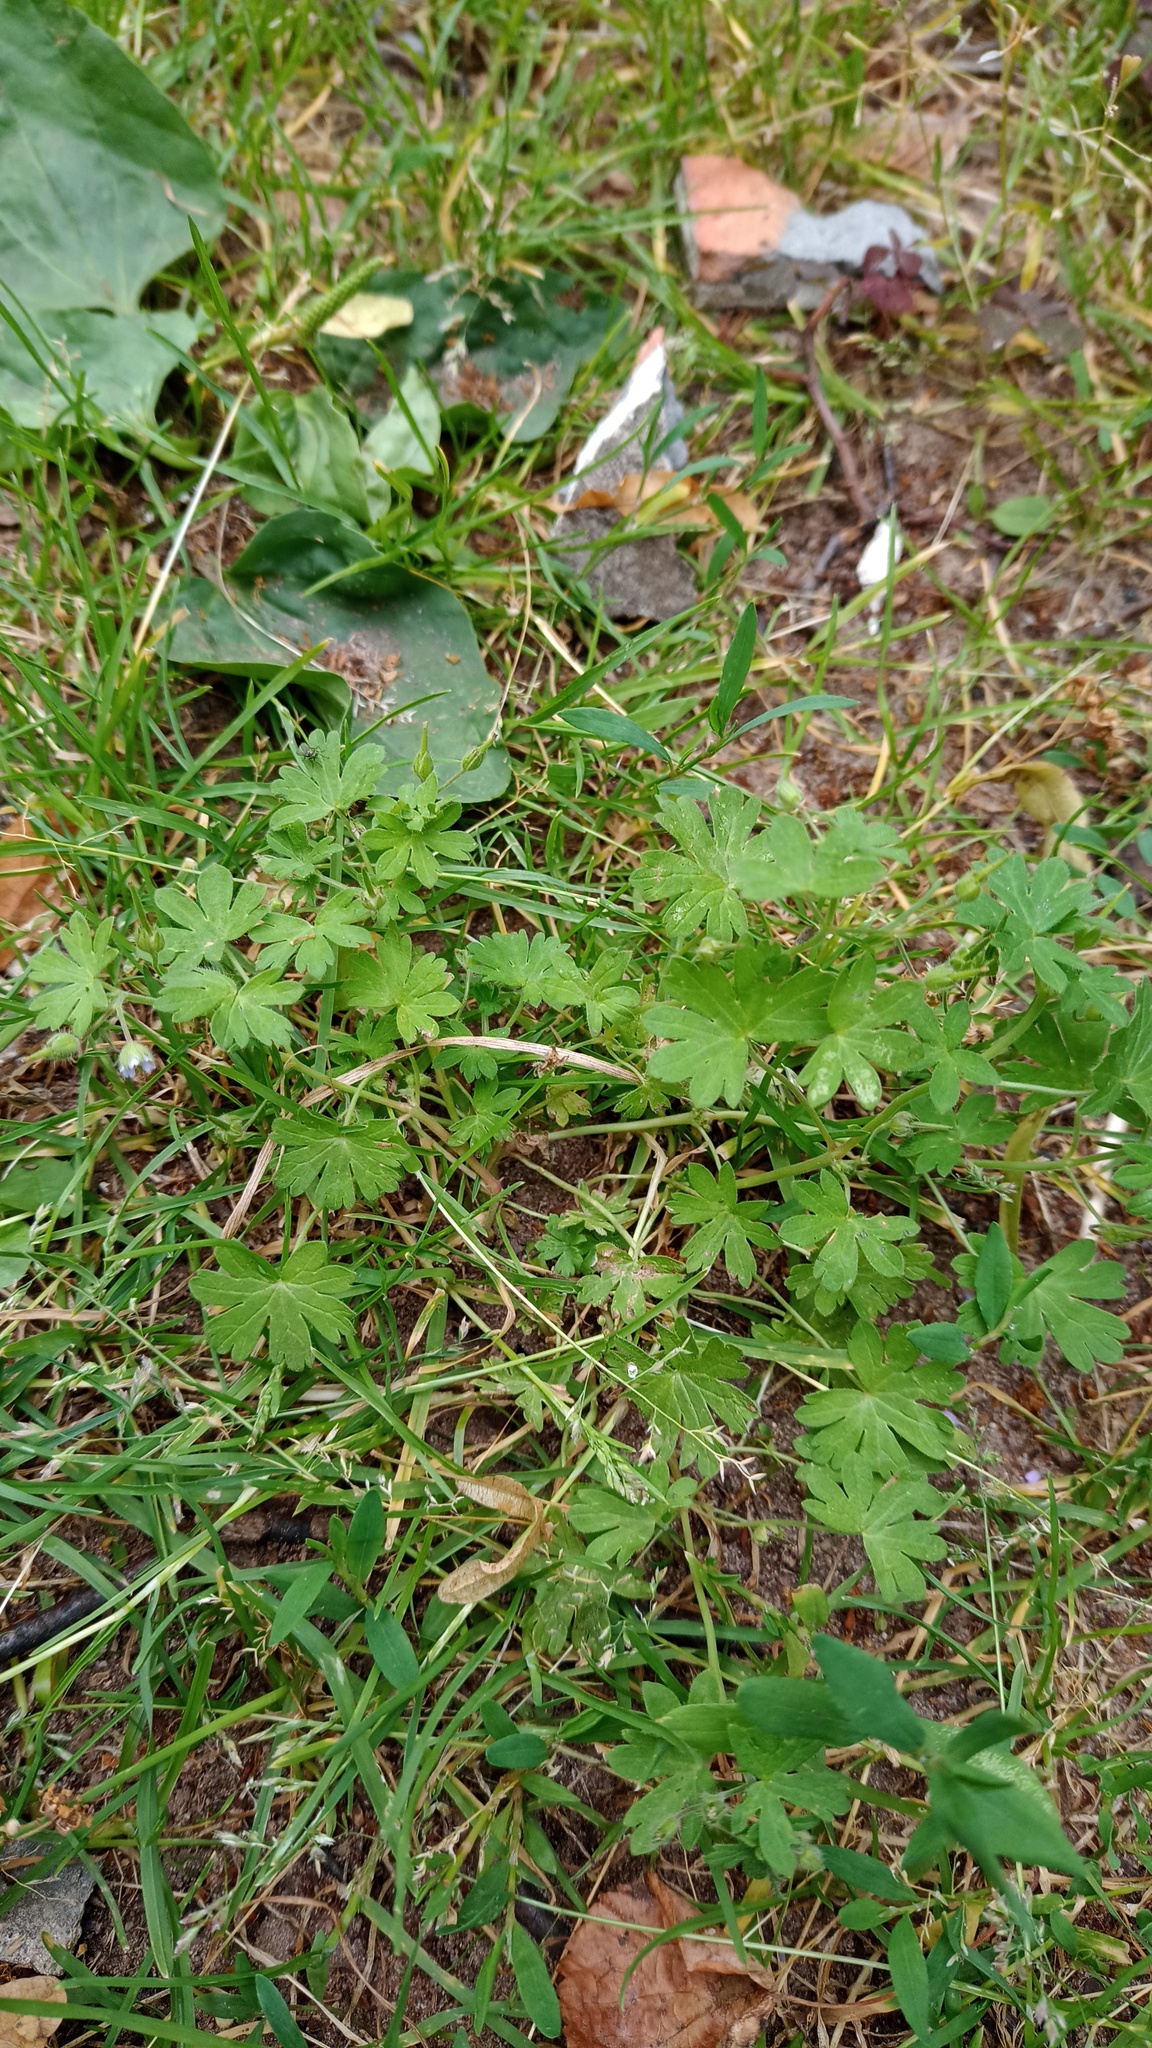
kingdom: Plantae
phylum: Tracheophyta
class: Magnoliopsida
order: Geraniales
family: Geraniaceae
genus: Geranium
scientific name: Geranium pusillum
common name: Small geranium
